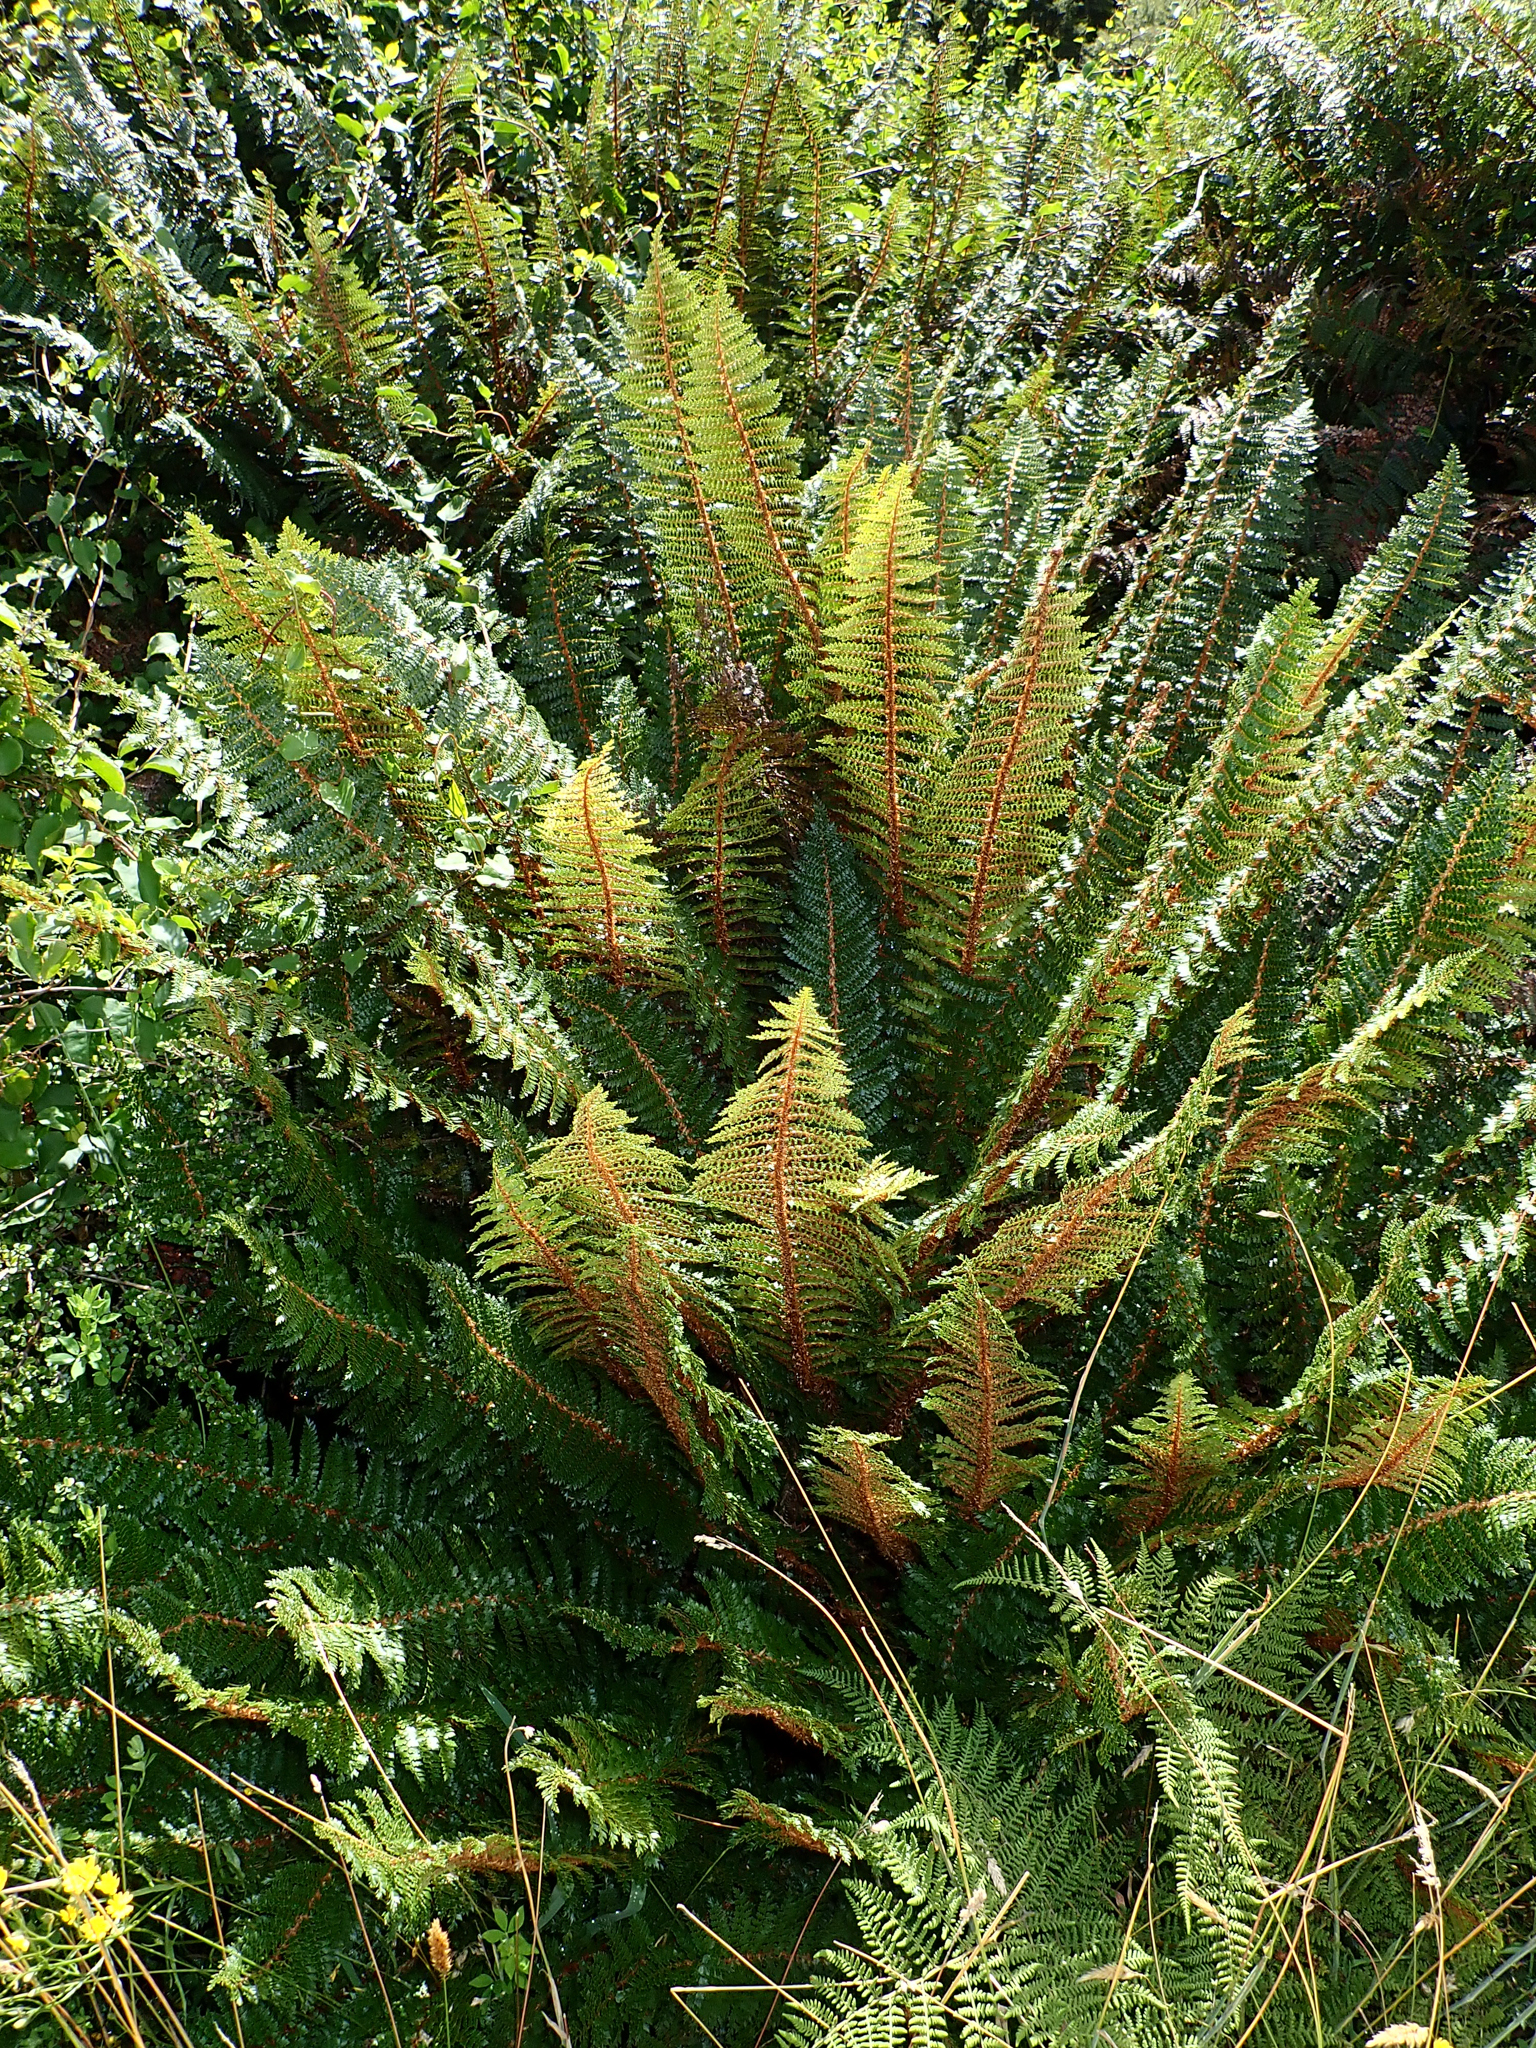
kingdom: Plantae
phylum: Tracheophyta
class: Polypodiopsida
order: Polypodiales
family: Dryopteridaceae
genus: Polystichum
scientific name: Polystichum vestitum
